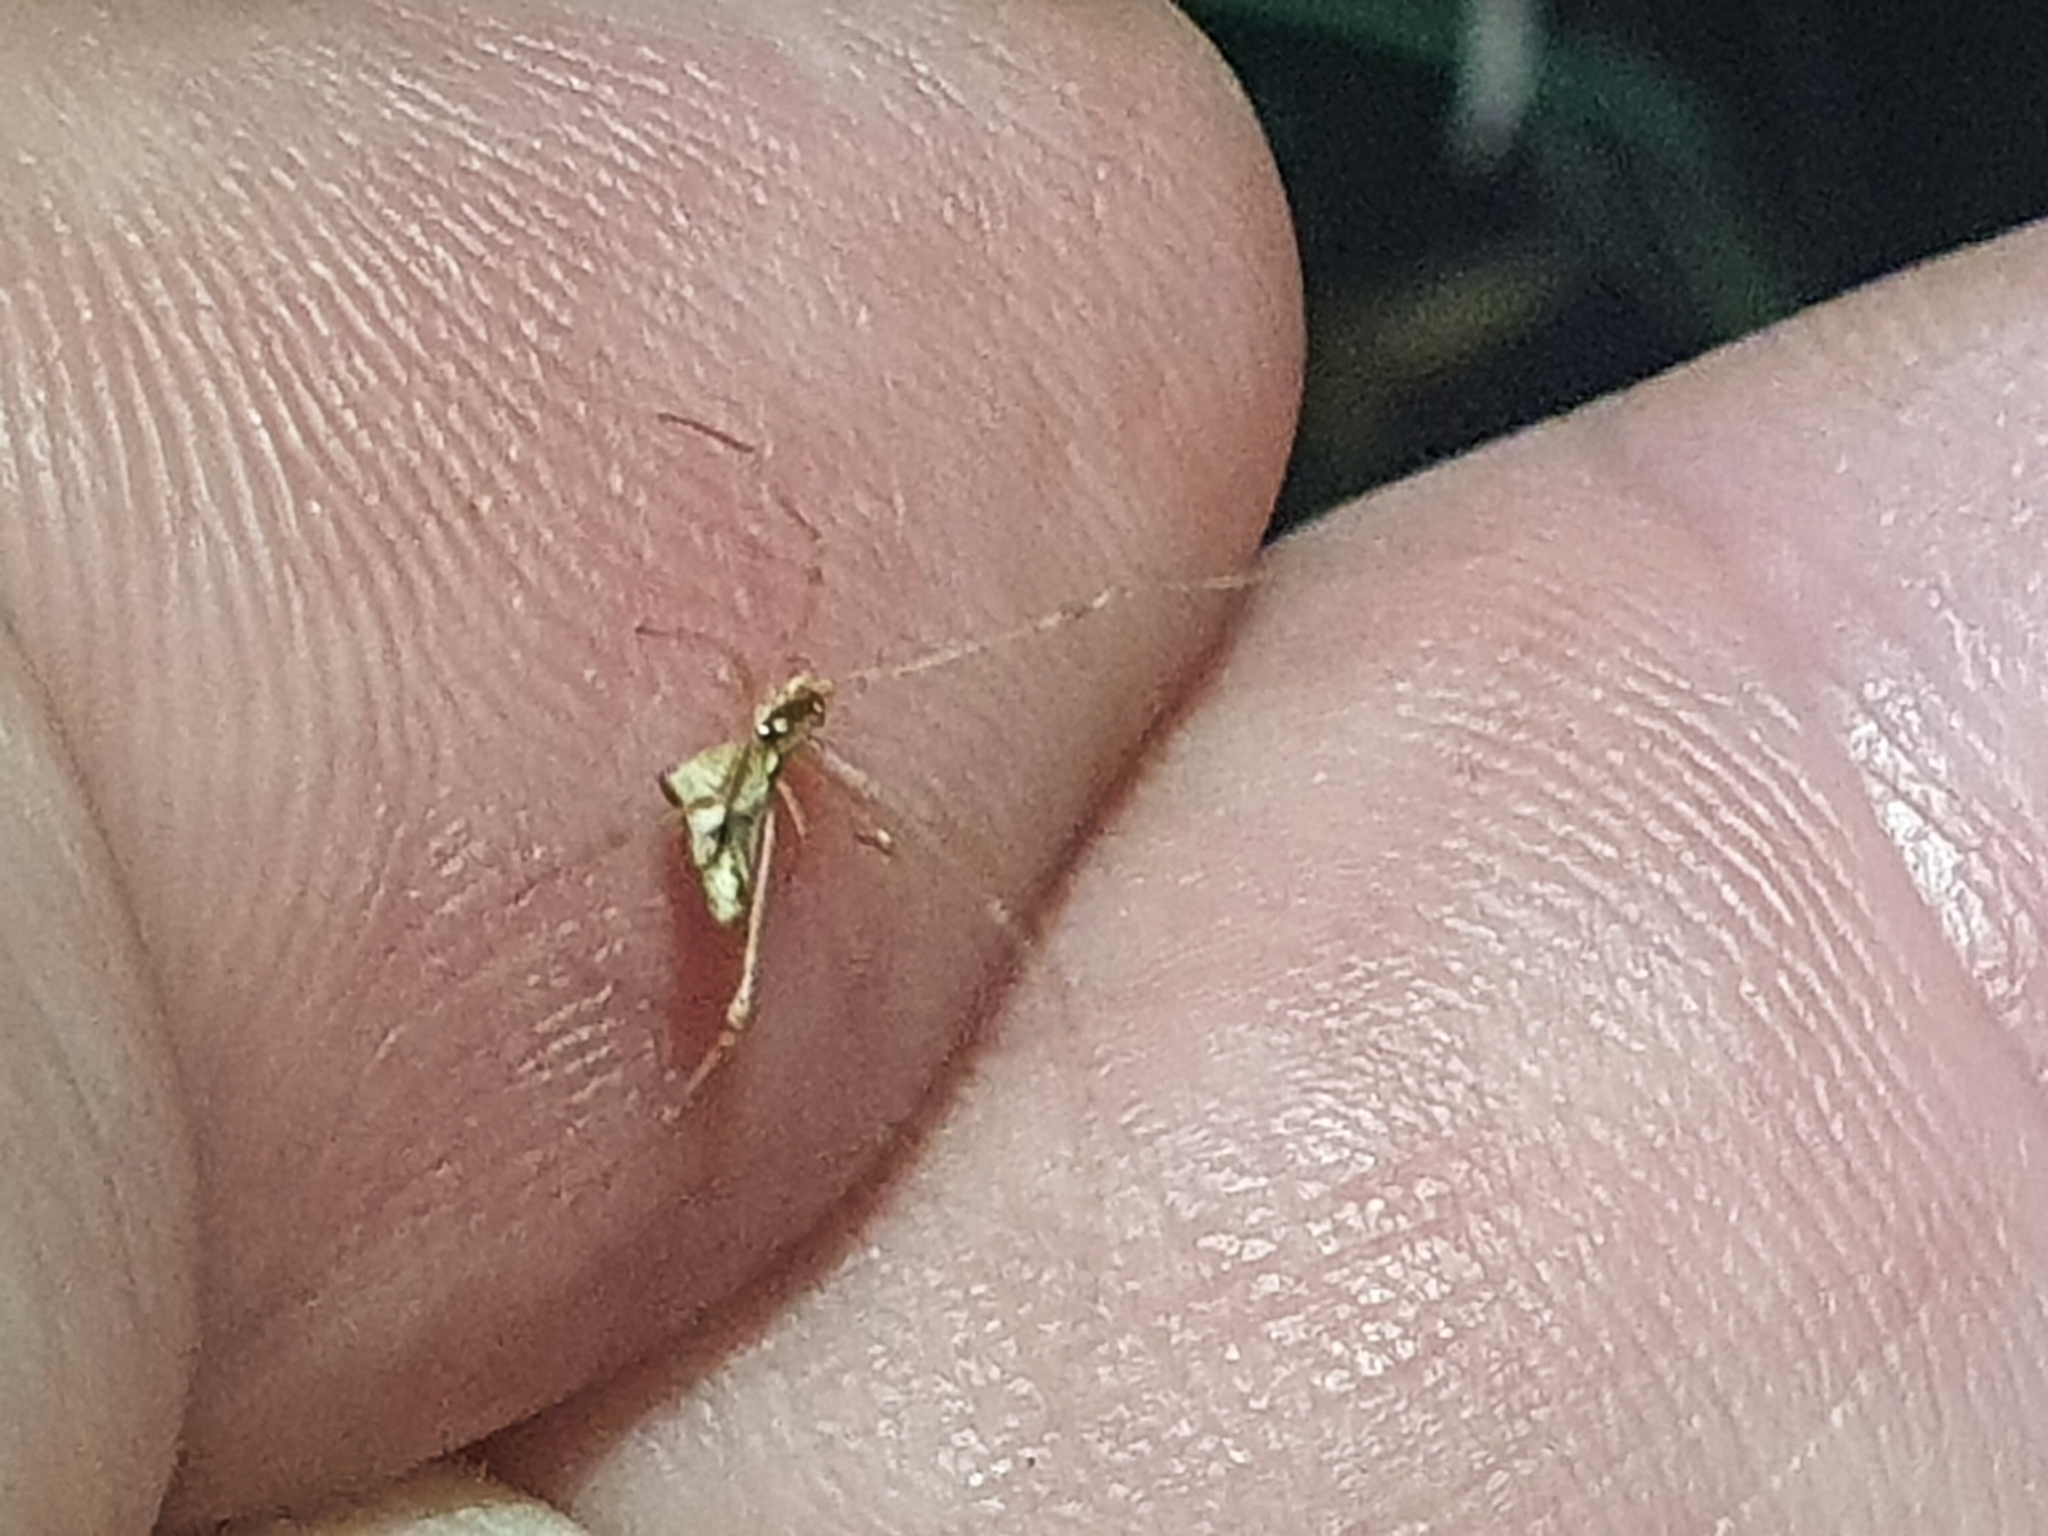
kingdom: Animalia
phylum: Arthropoda
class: Arachnida
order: Araneae
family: Theridiidae
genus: Rhomphaea
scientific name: Rhomphaea urquharti
